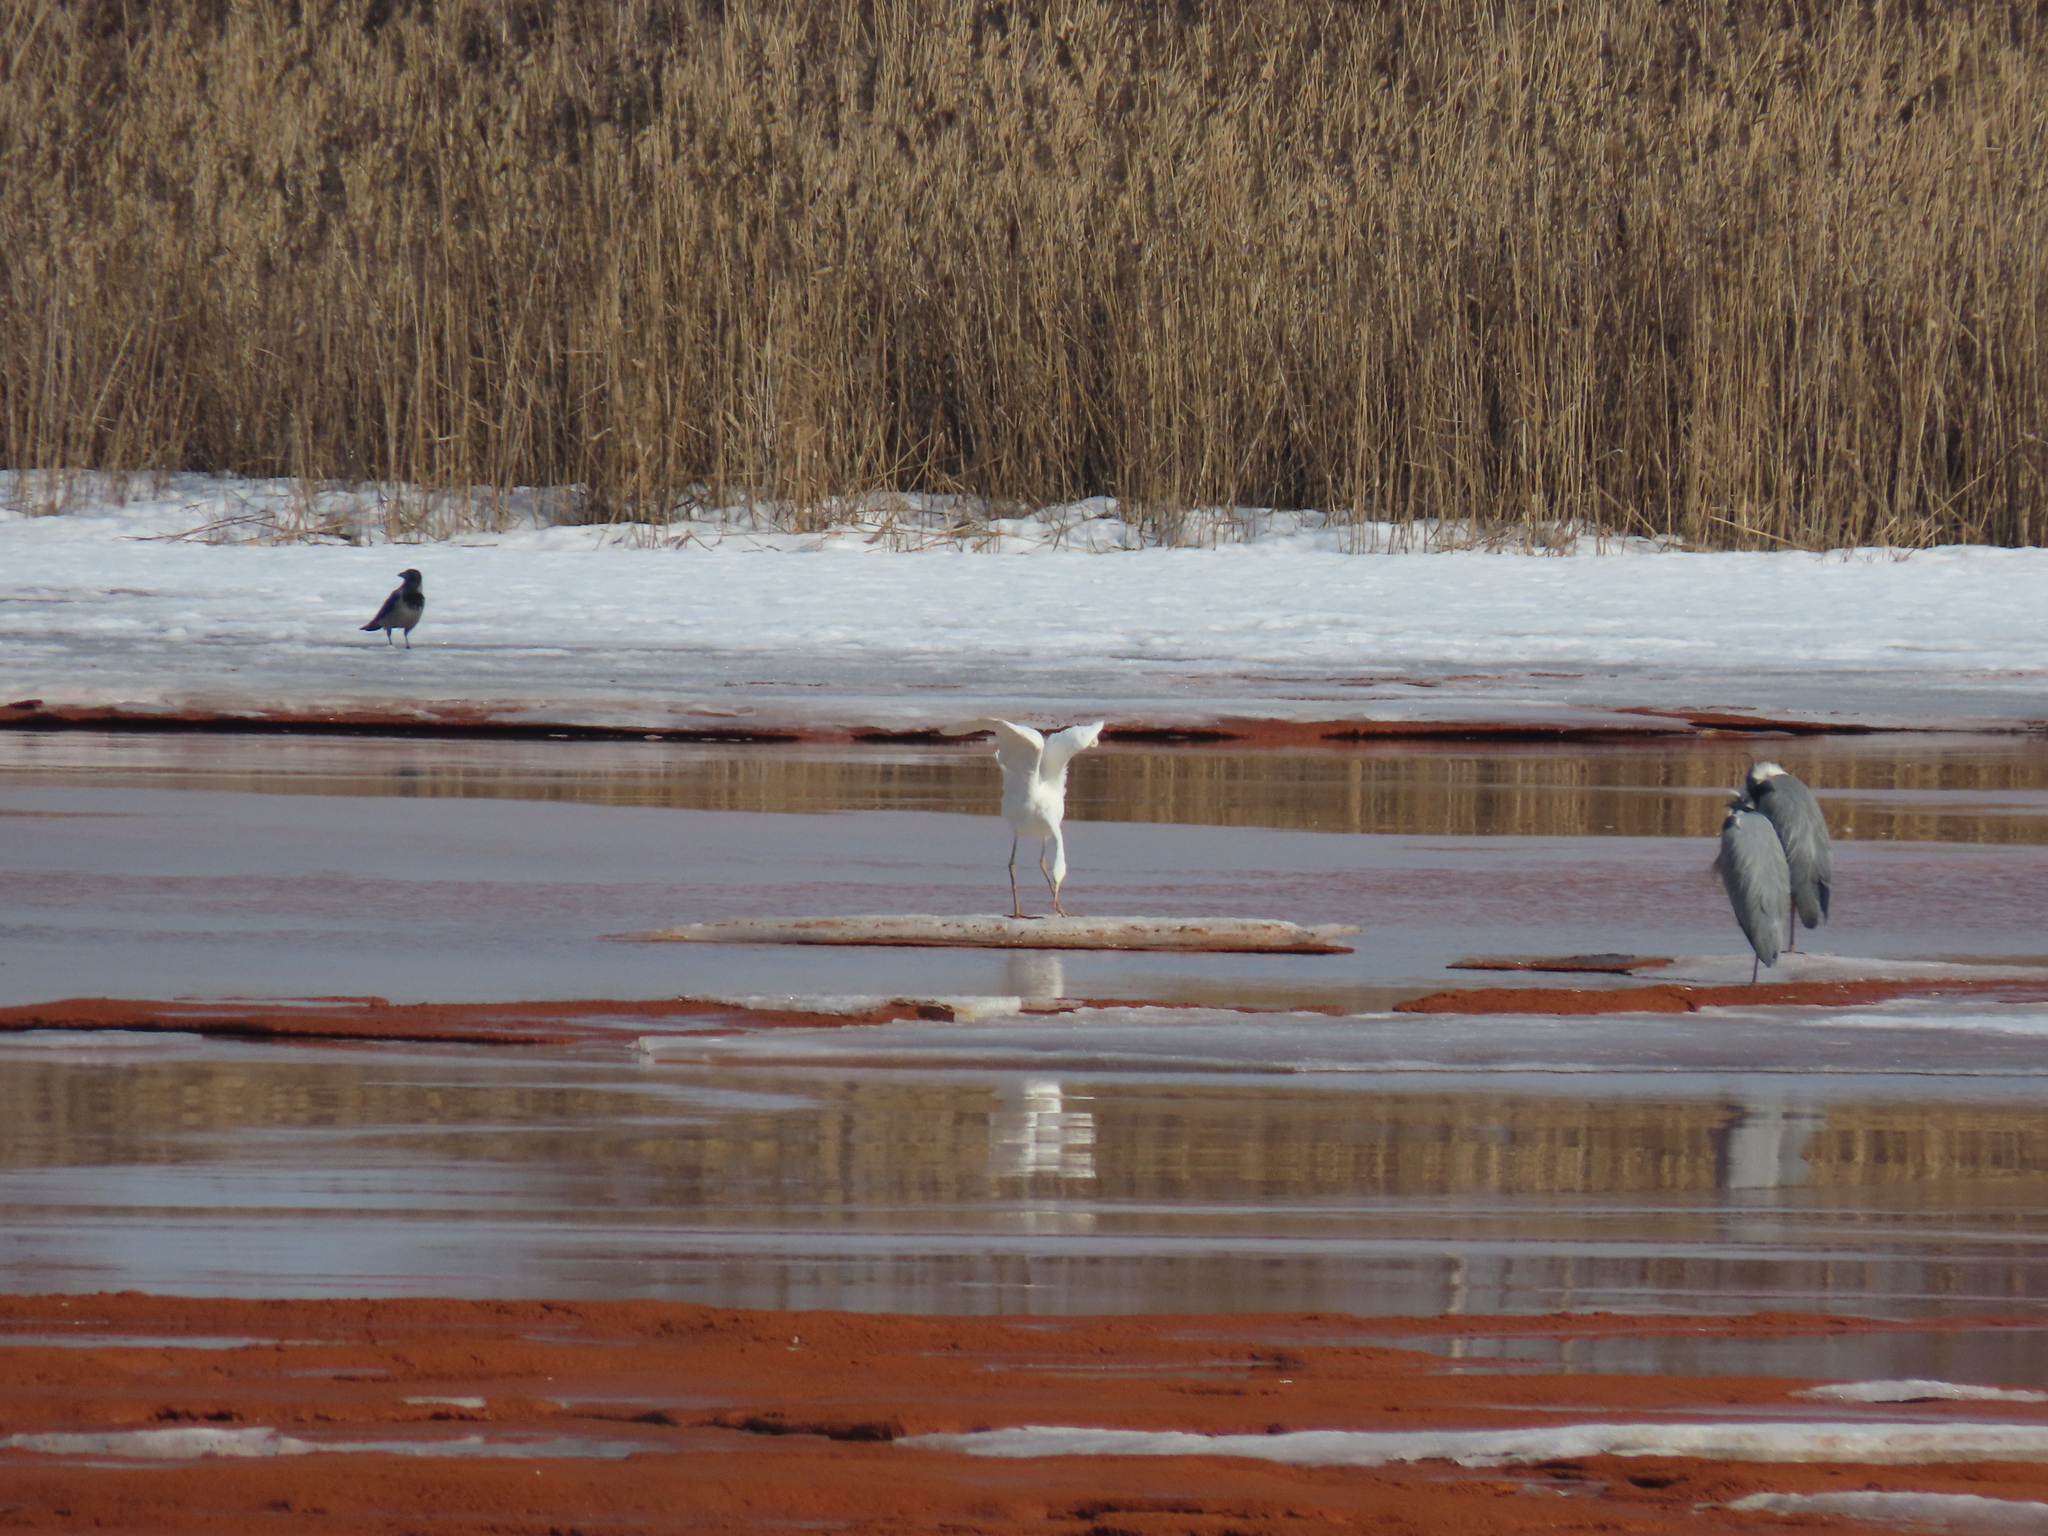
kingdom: Animalia
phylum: Chordata
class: Aves
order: Pelecaniformes
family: Ardeidae
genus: Ardea
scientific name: Ardea alba
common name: Great egret
